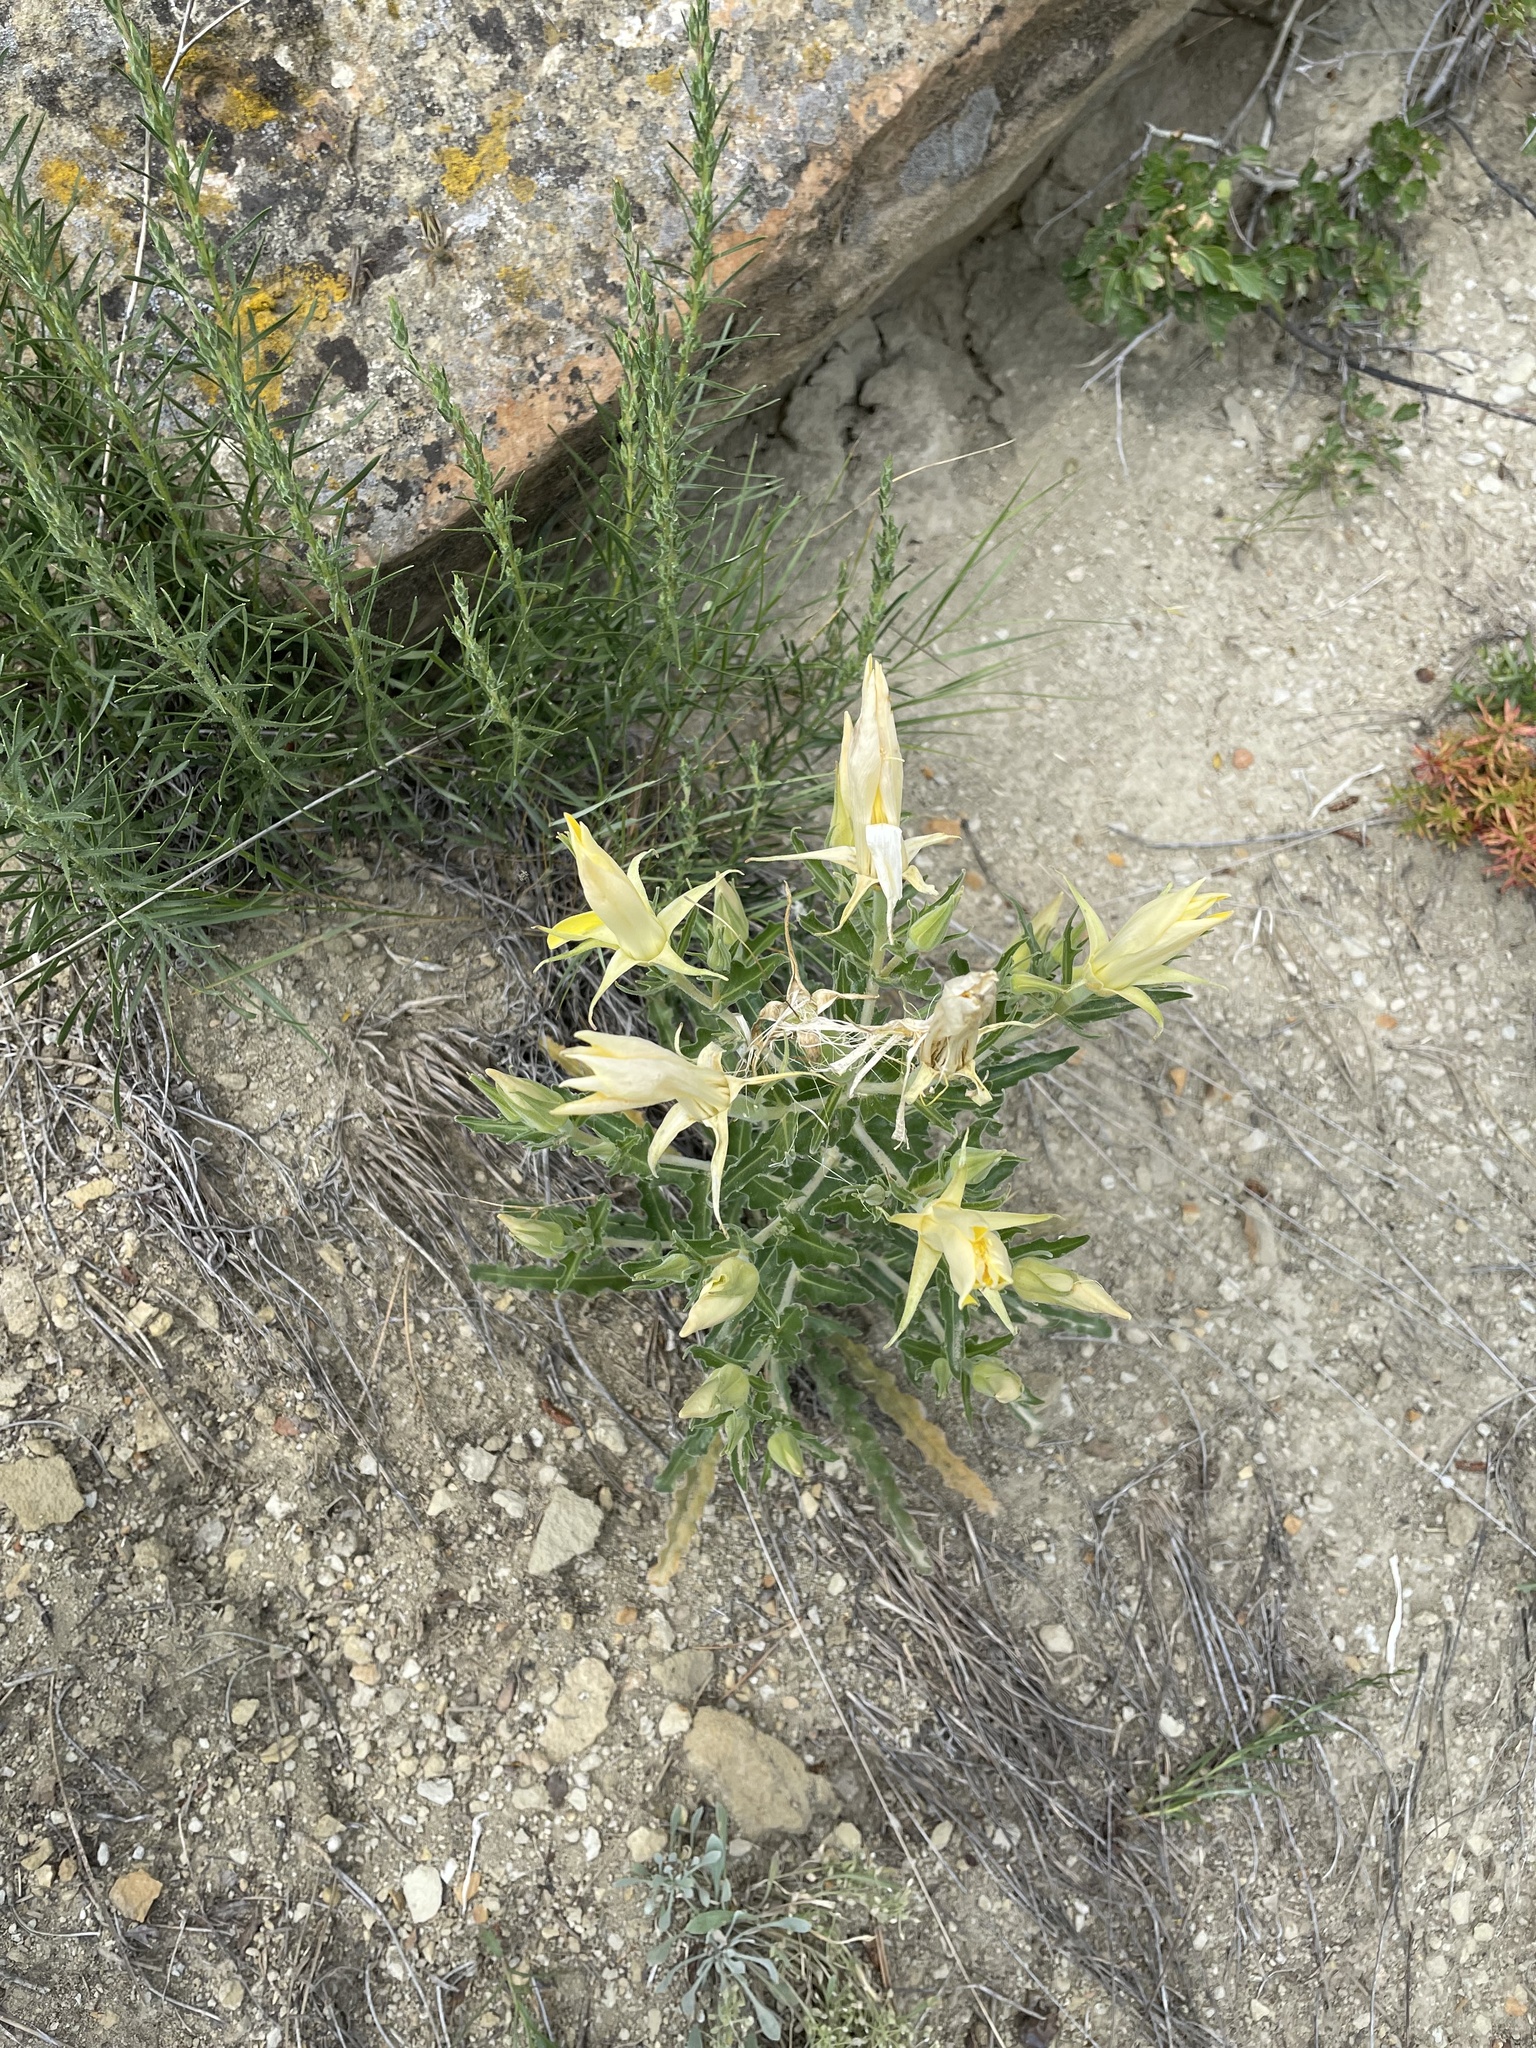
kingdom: Plantae
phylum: Tracheophyta
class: Magnoliopsida
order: Cornales
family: Loasaceae
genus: Mentzelia
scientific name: Mentzelia laevicaulis
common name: Smooth-stem blazingstar
